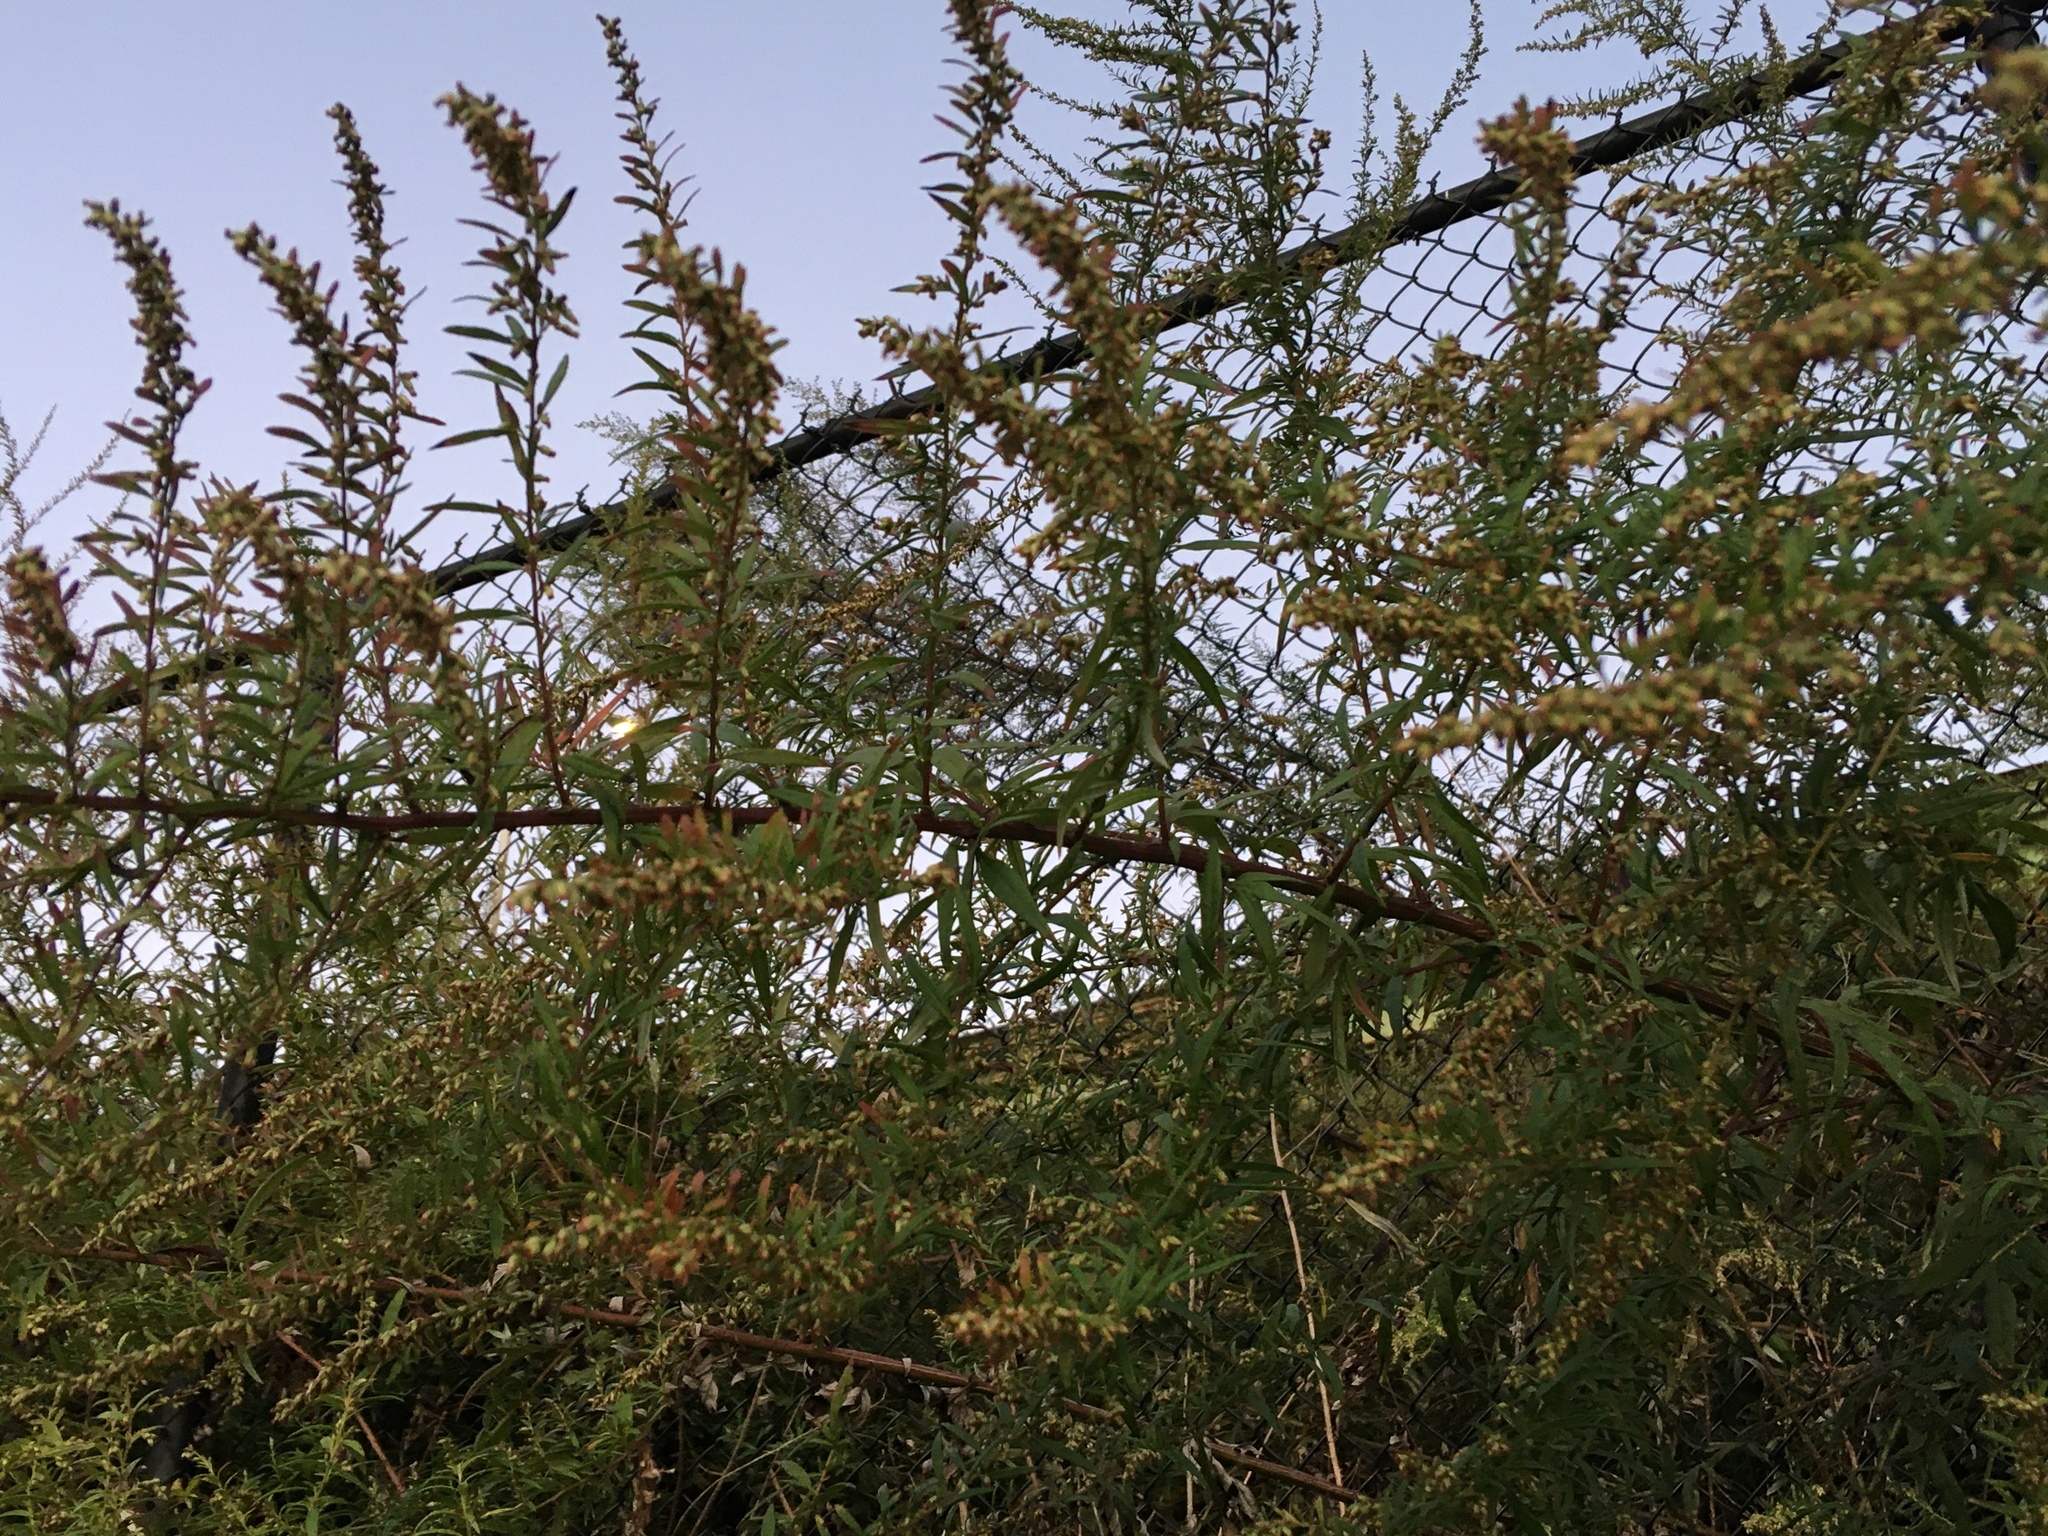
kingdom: Plantae
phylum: Tracheophyta
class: Magnoliopsida
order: Asterales
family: Asteraceae
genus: Artemisia
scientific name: Artemisia vulgaris
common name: Mugwort
